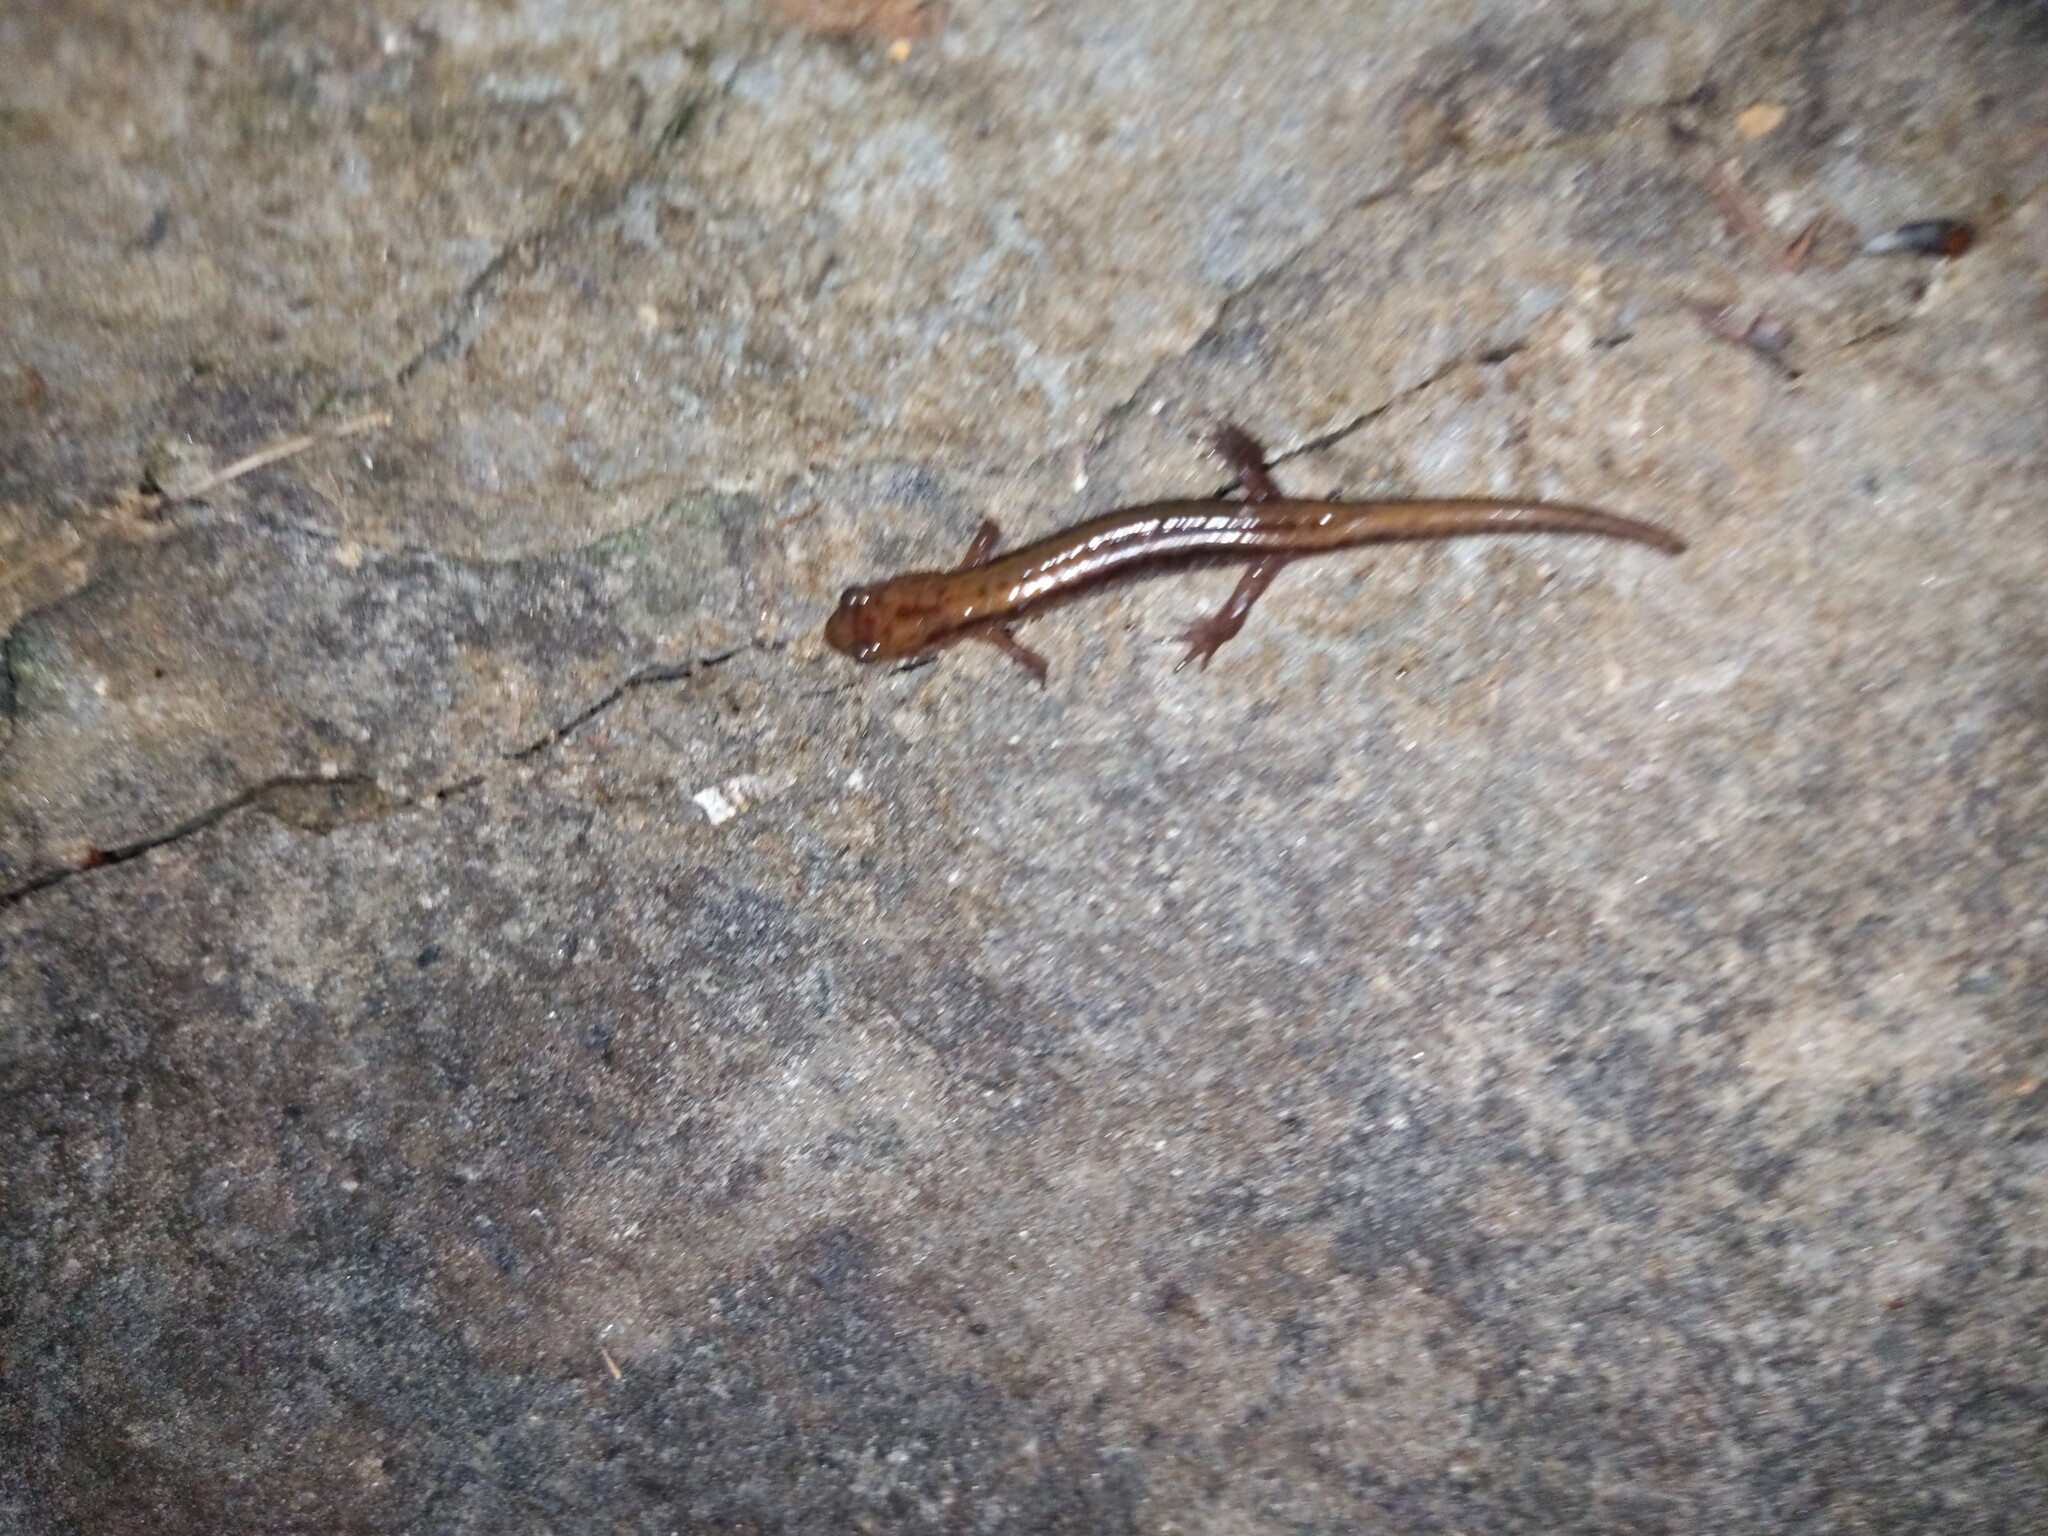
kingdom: Animalia
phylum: Chordata
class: Amphibia
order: Caudata
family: Plethodontidae
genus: Desmognathus
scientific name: Desmognathus ochrophaeus
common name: Allegheny mountain dusky salamander
